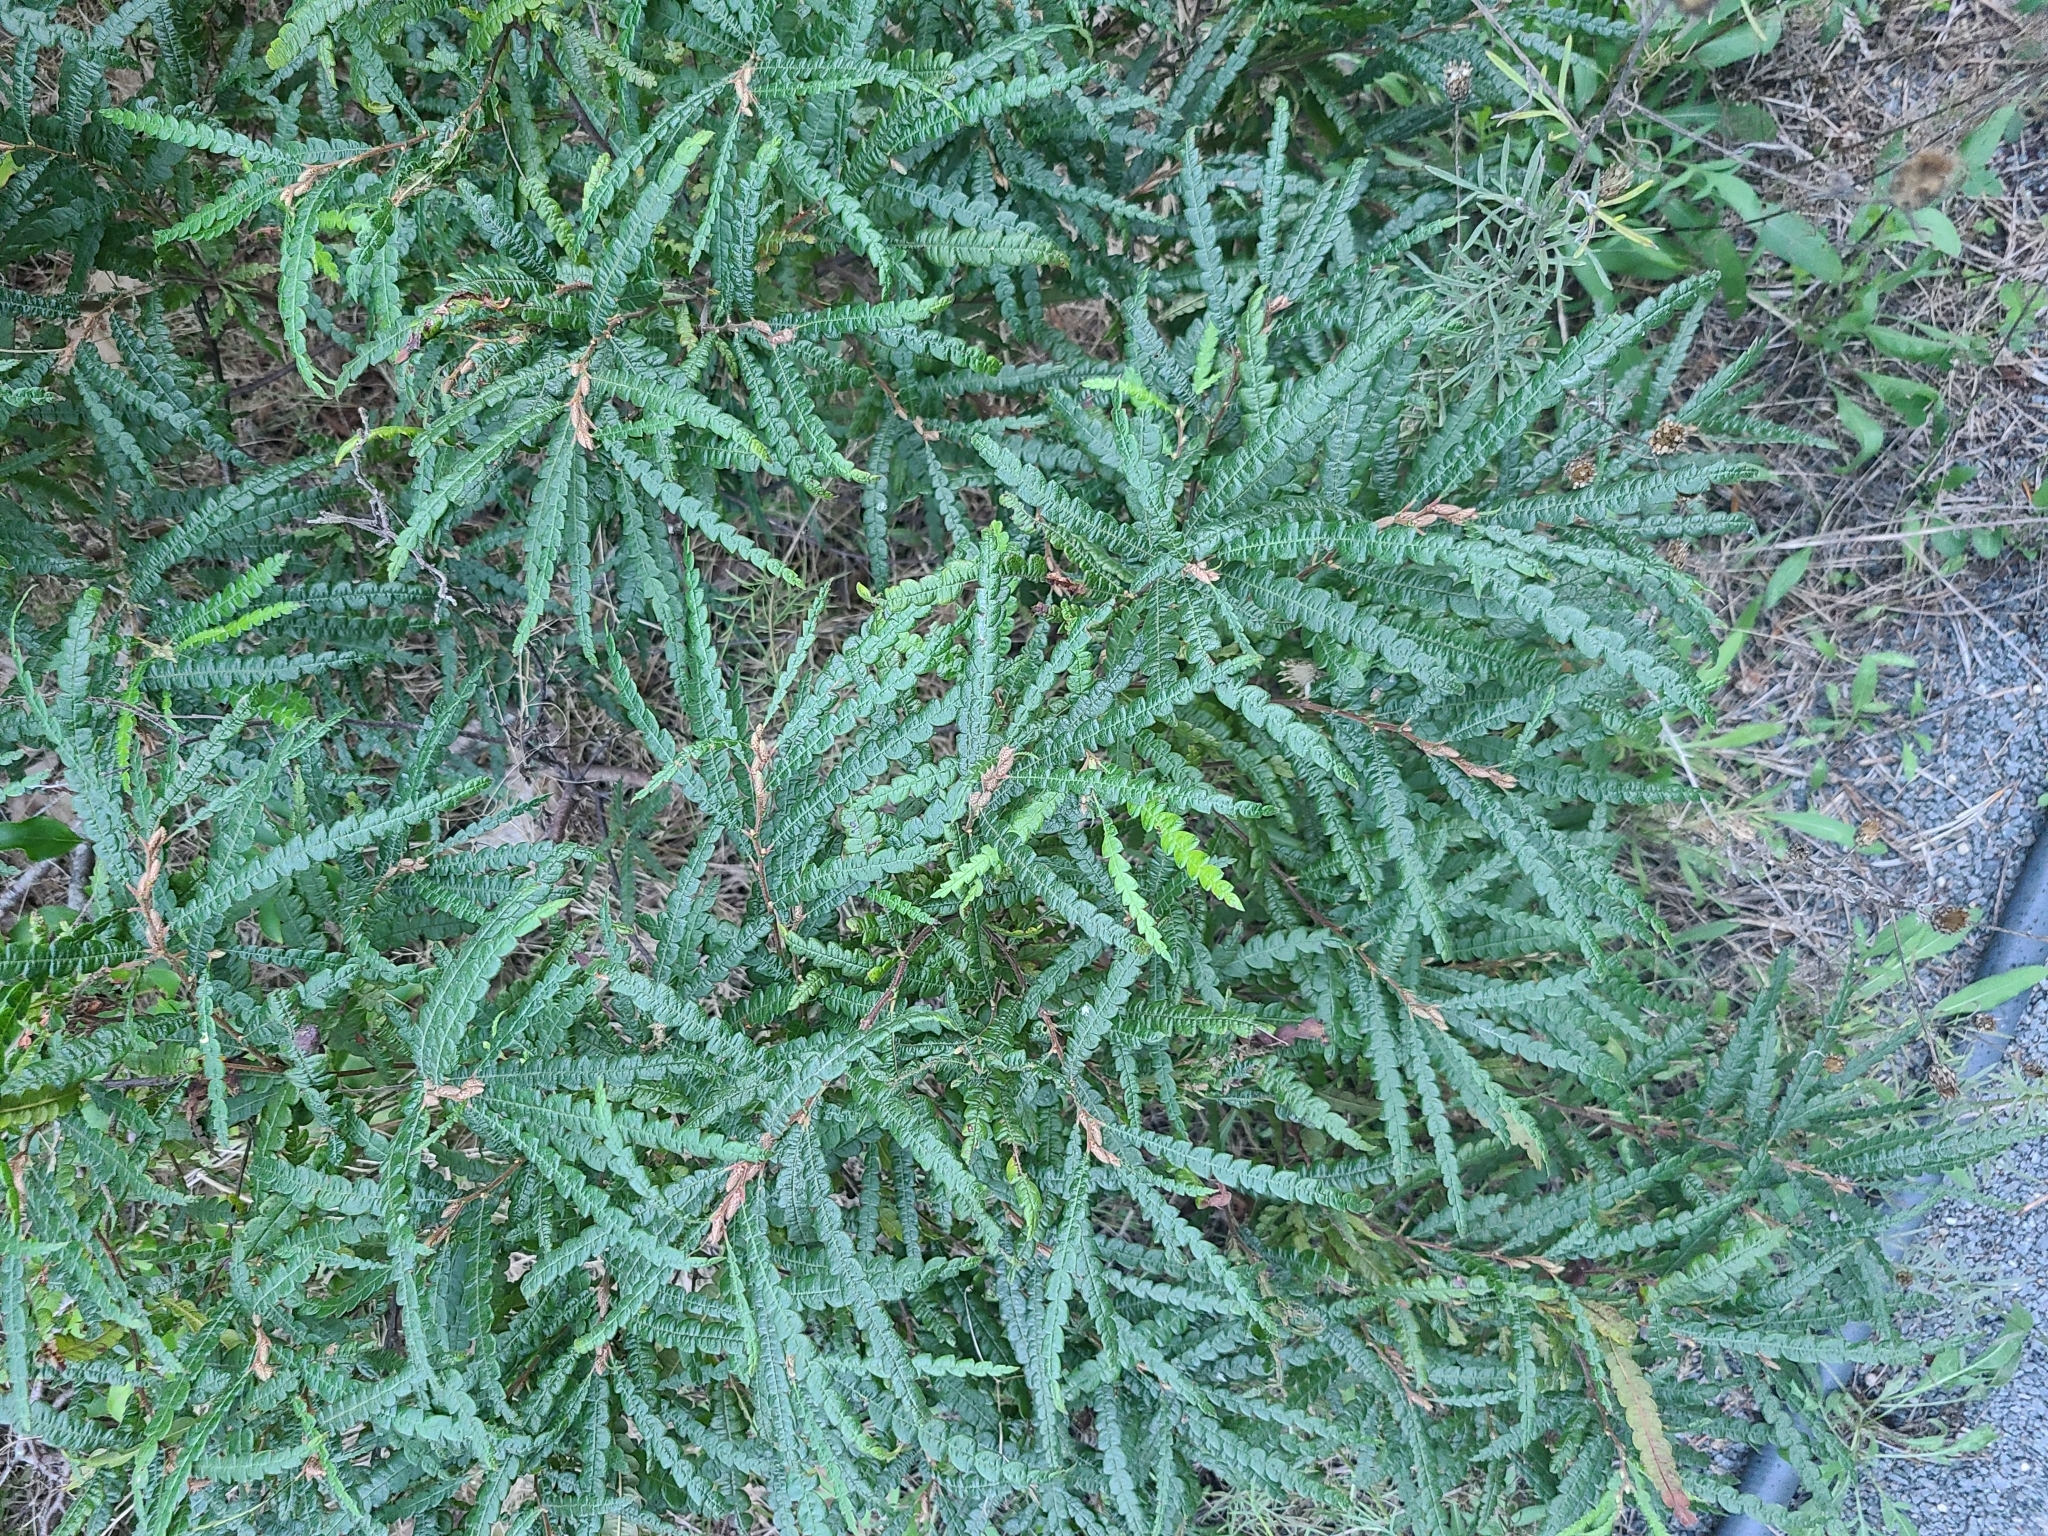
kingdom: Plantae
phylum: Tracheophyta
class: Magnoliopsida
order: Fagales
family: Myricaceae
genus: Comptonia
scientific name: Comptonia peregrina
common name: Sweet-fern
